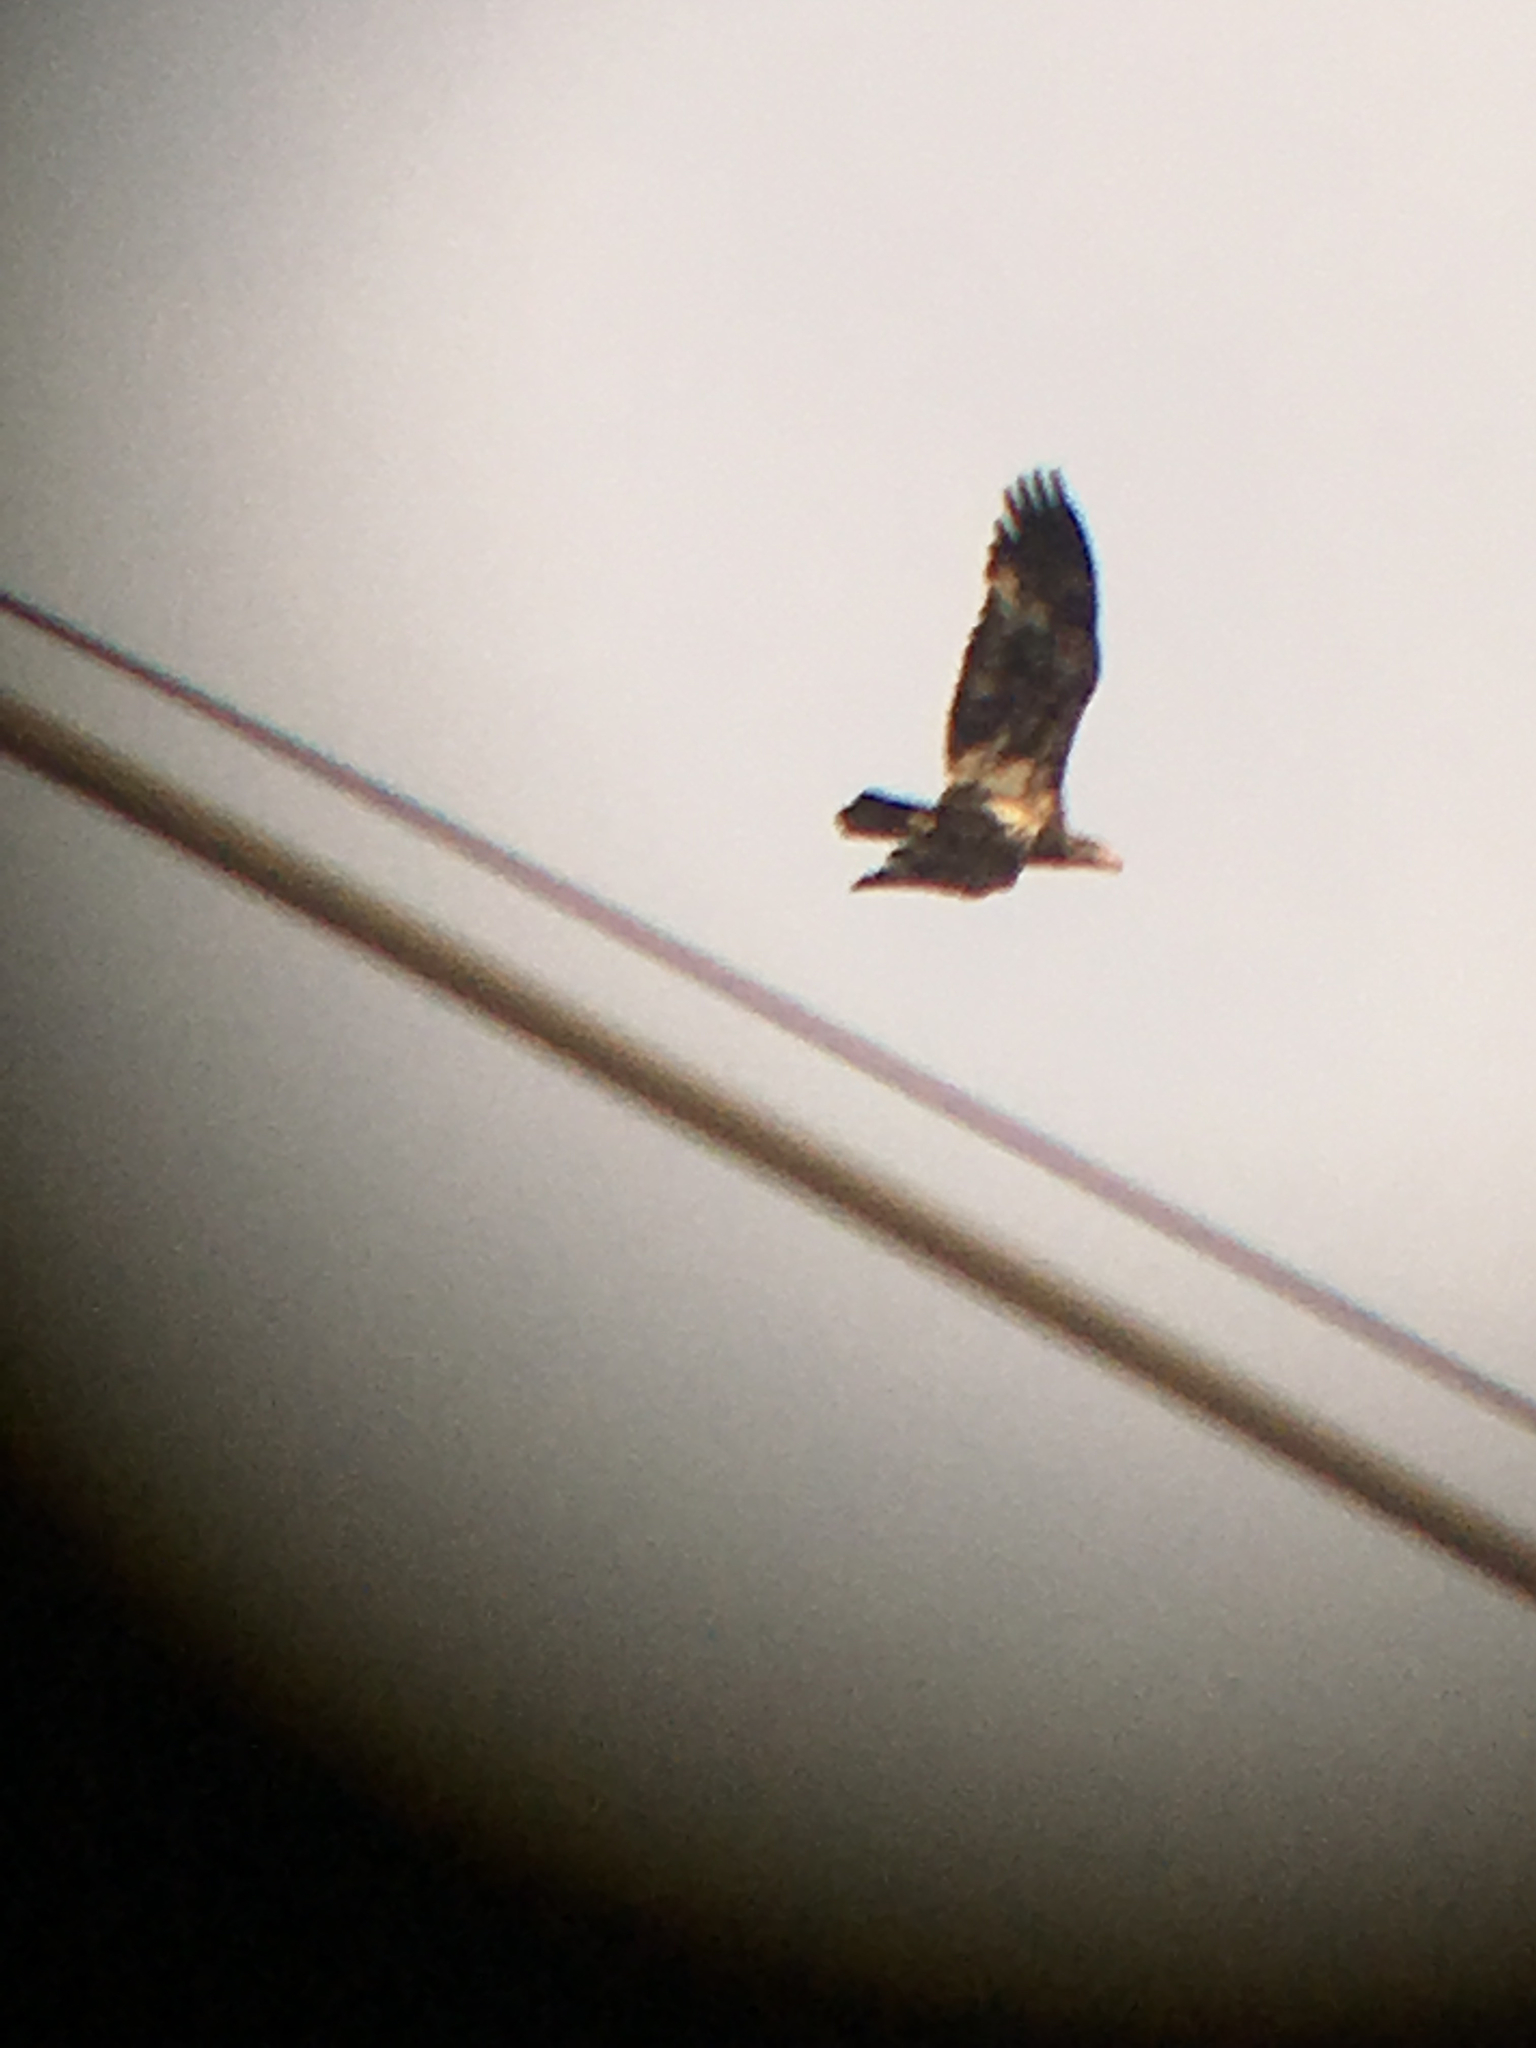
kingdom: Animalia
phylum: Chordata
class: Aves
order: Accipitriformes
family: Accipitridae
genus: Haliaeetus
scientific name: Haliaeetus leucocephalus
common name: Bald eagle
